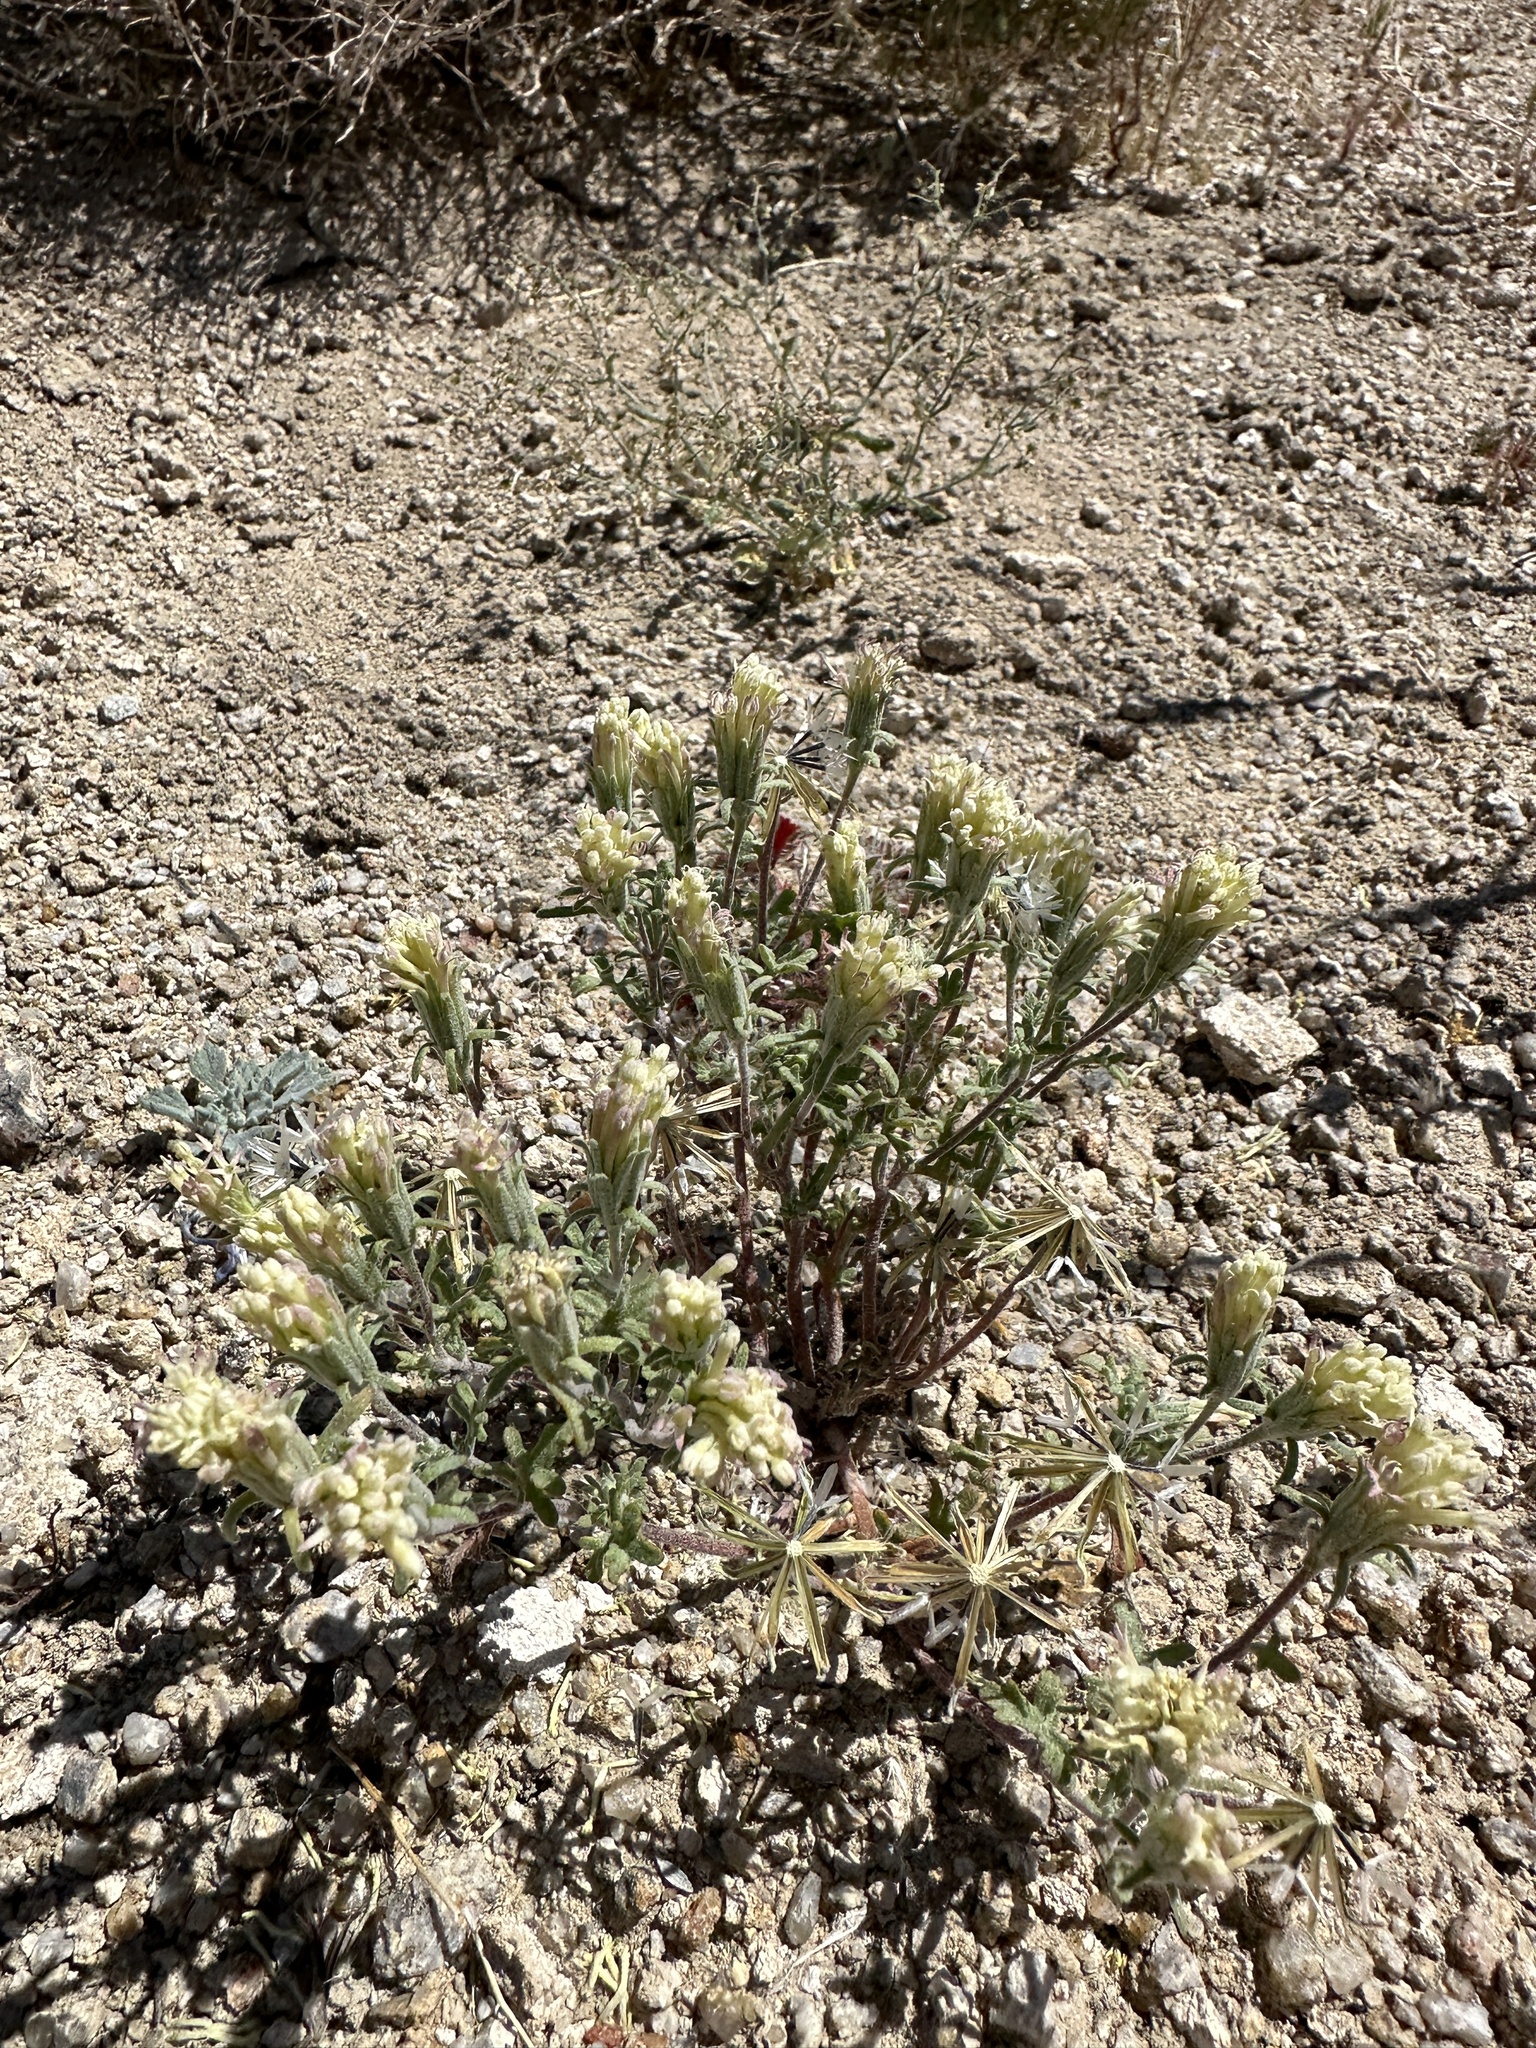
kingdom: Plantae
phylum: Tracheophyta
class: Magnoliopsida
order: Asterales
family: Asteraceae
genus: Chaenactis
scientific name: Chaenactis macrantha
